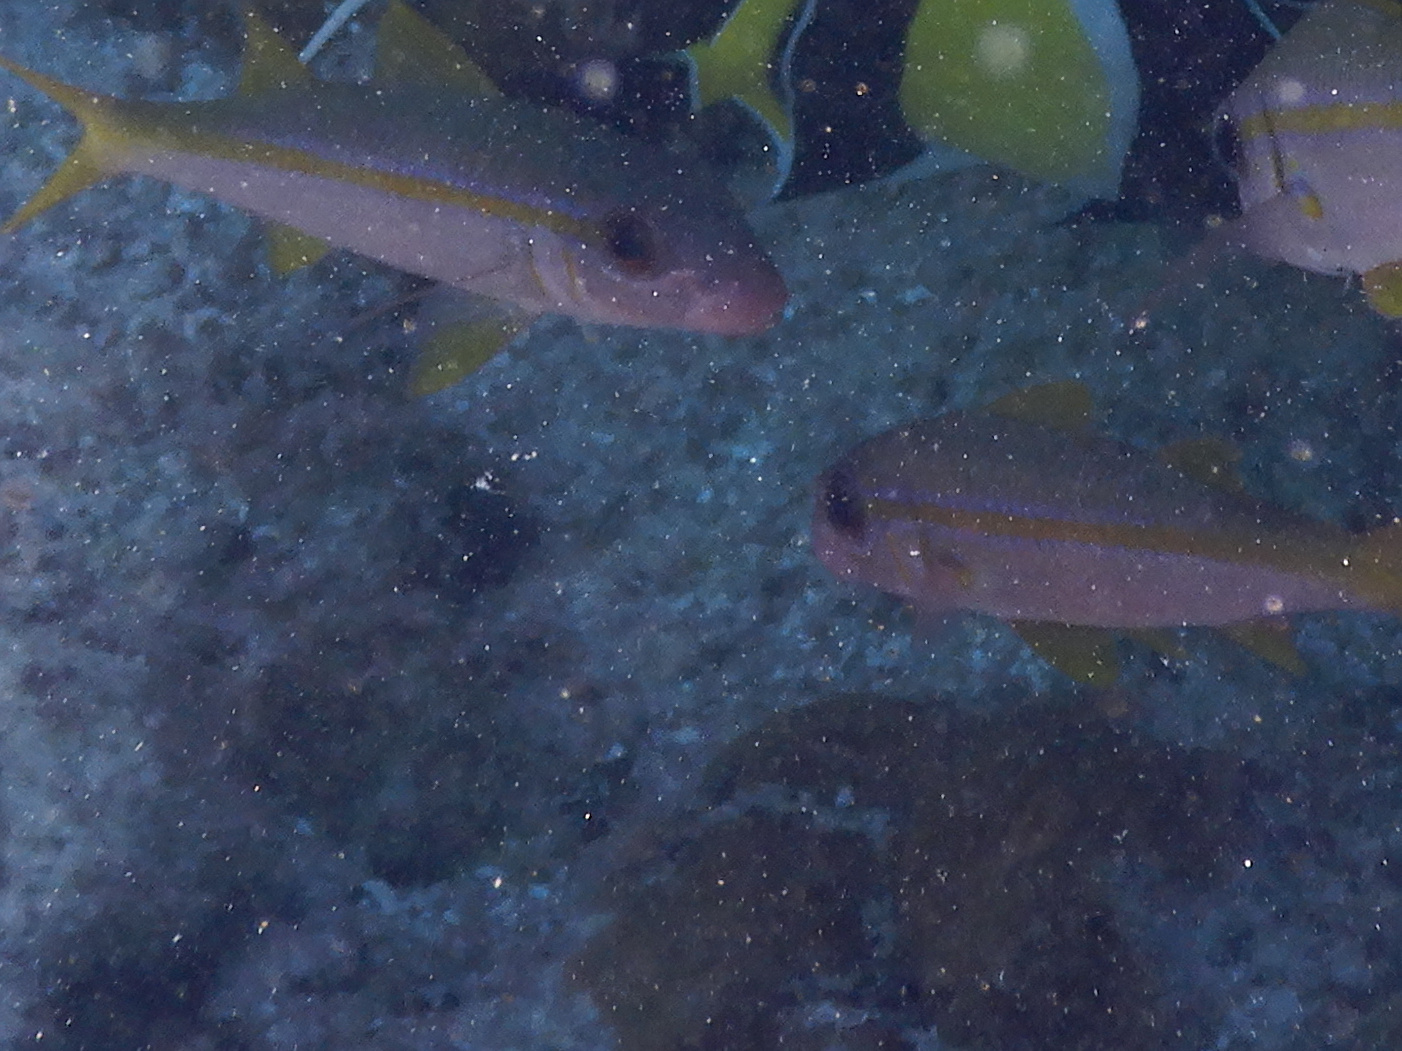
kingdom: Animalia
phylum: Chordata
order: Perciformes
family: Mullidae
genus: Mulloidichthys
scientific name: Mulloidichthys vanicolensis
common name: Yellowfin goatfish
